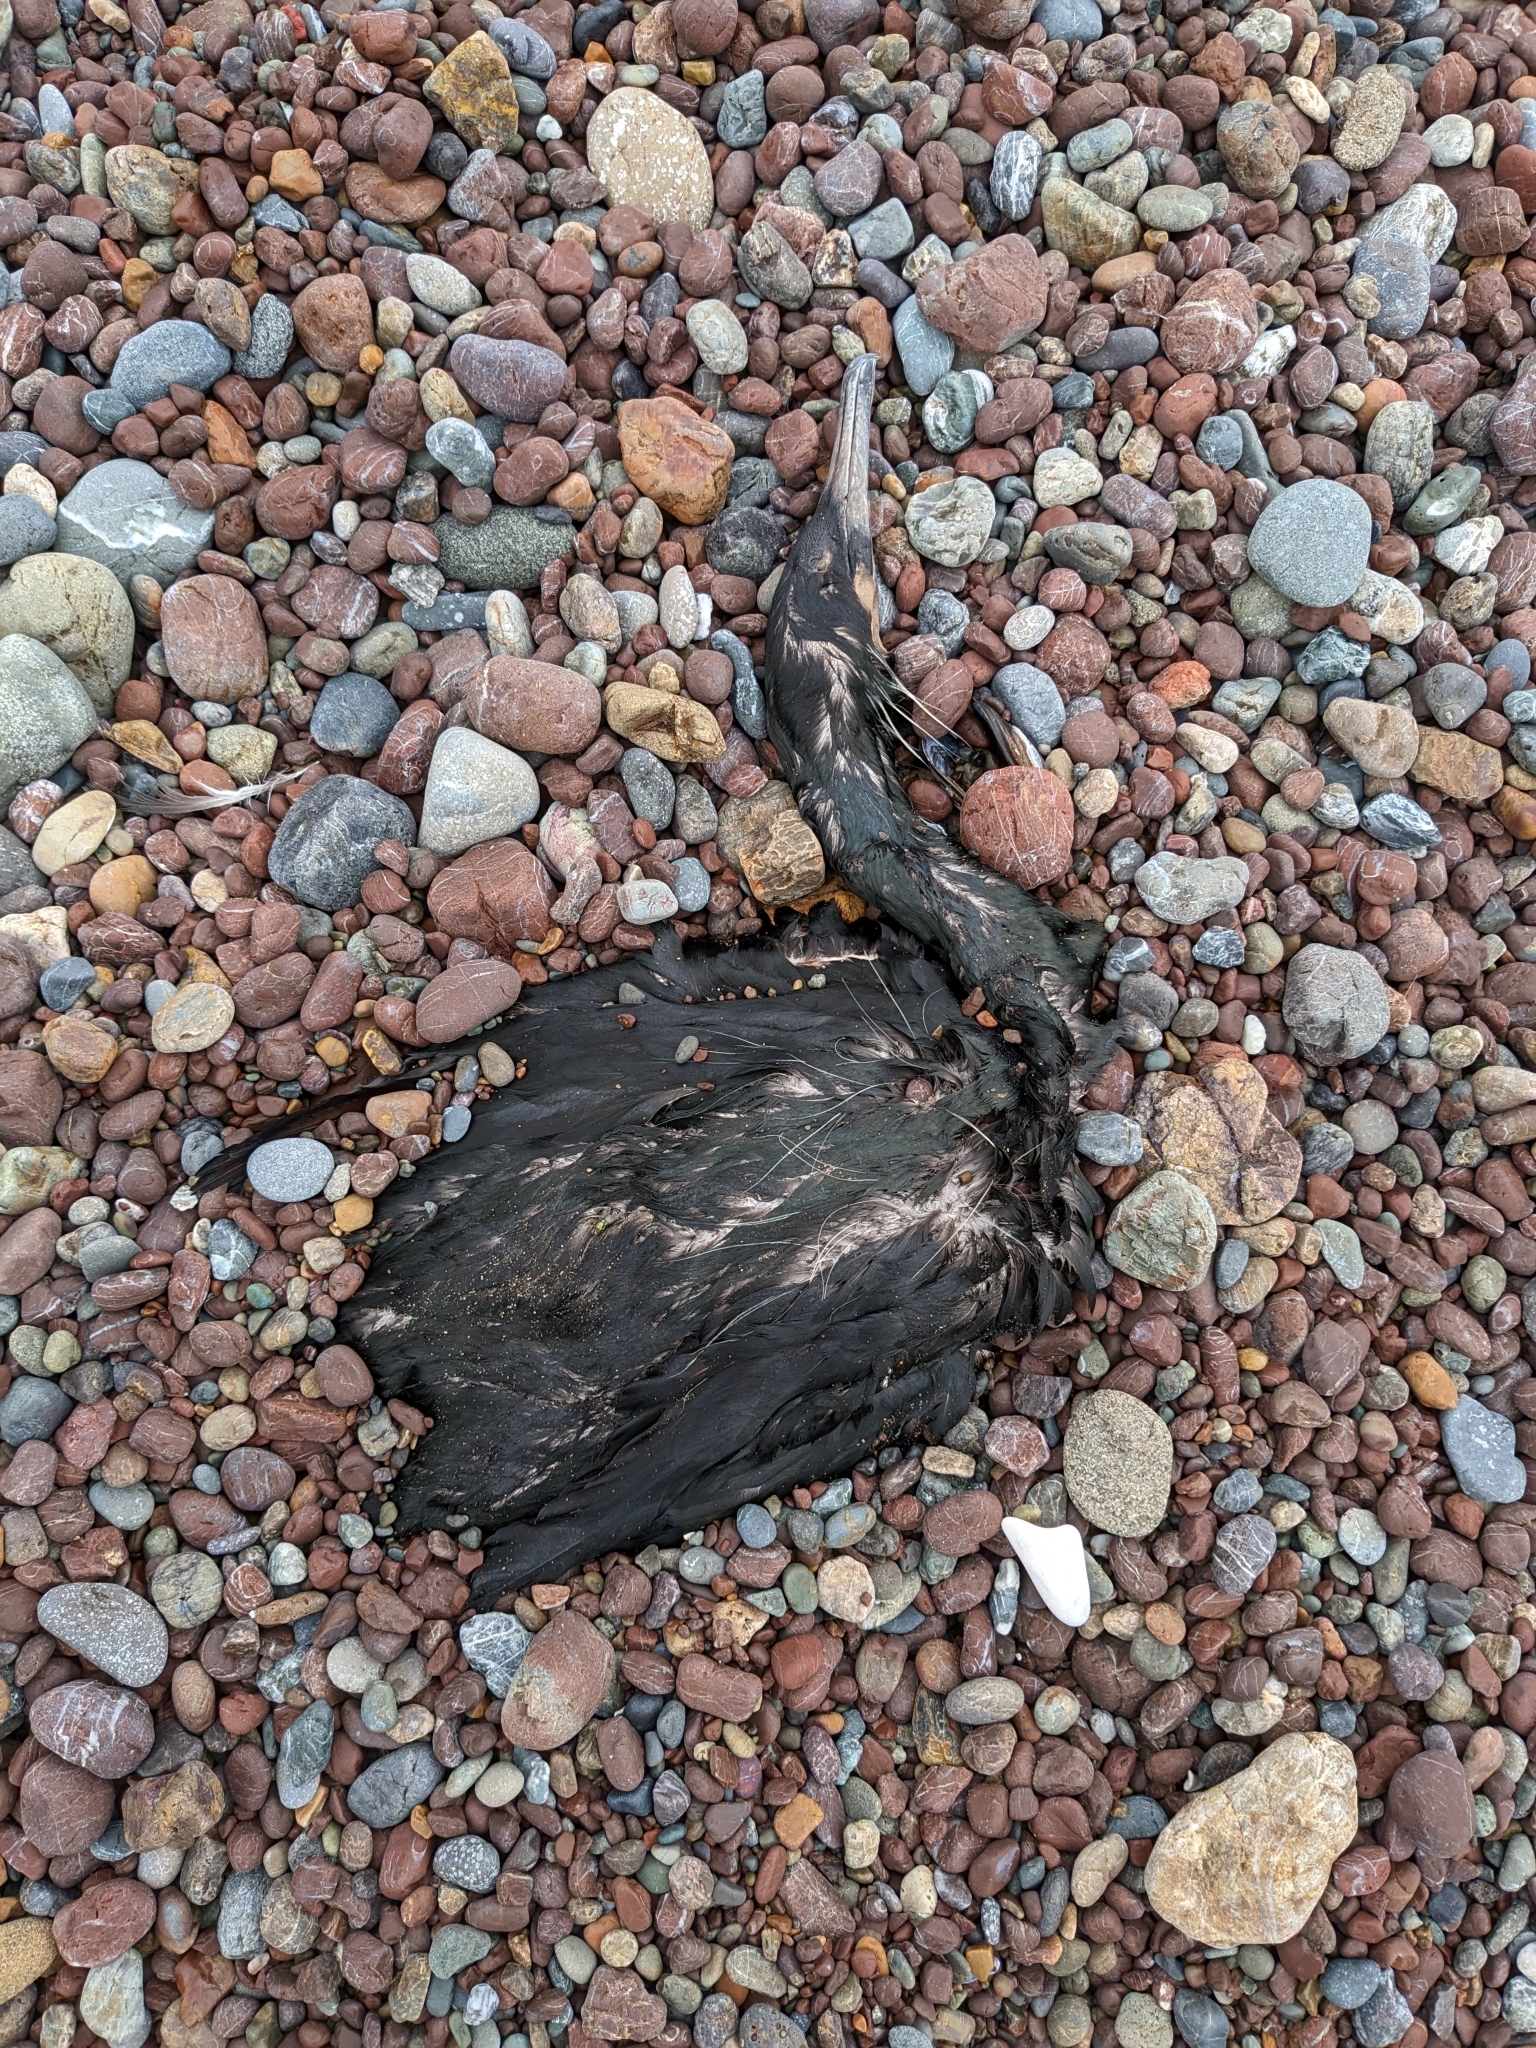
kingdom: Animalia
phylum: Chordata
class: Aves
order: Suliformes
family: Phalacrocoracidae
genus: Urile
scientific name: Urile penicillatus
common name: Brandt's cormorant
